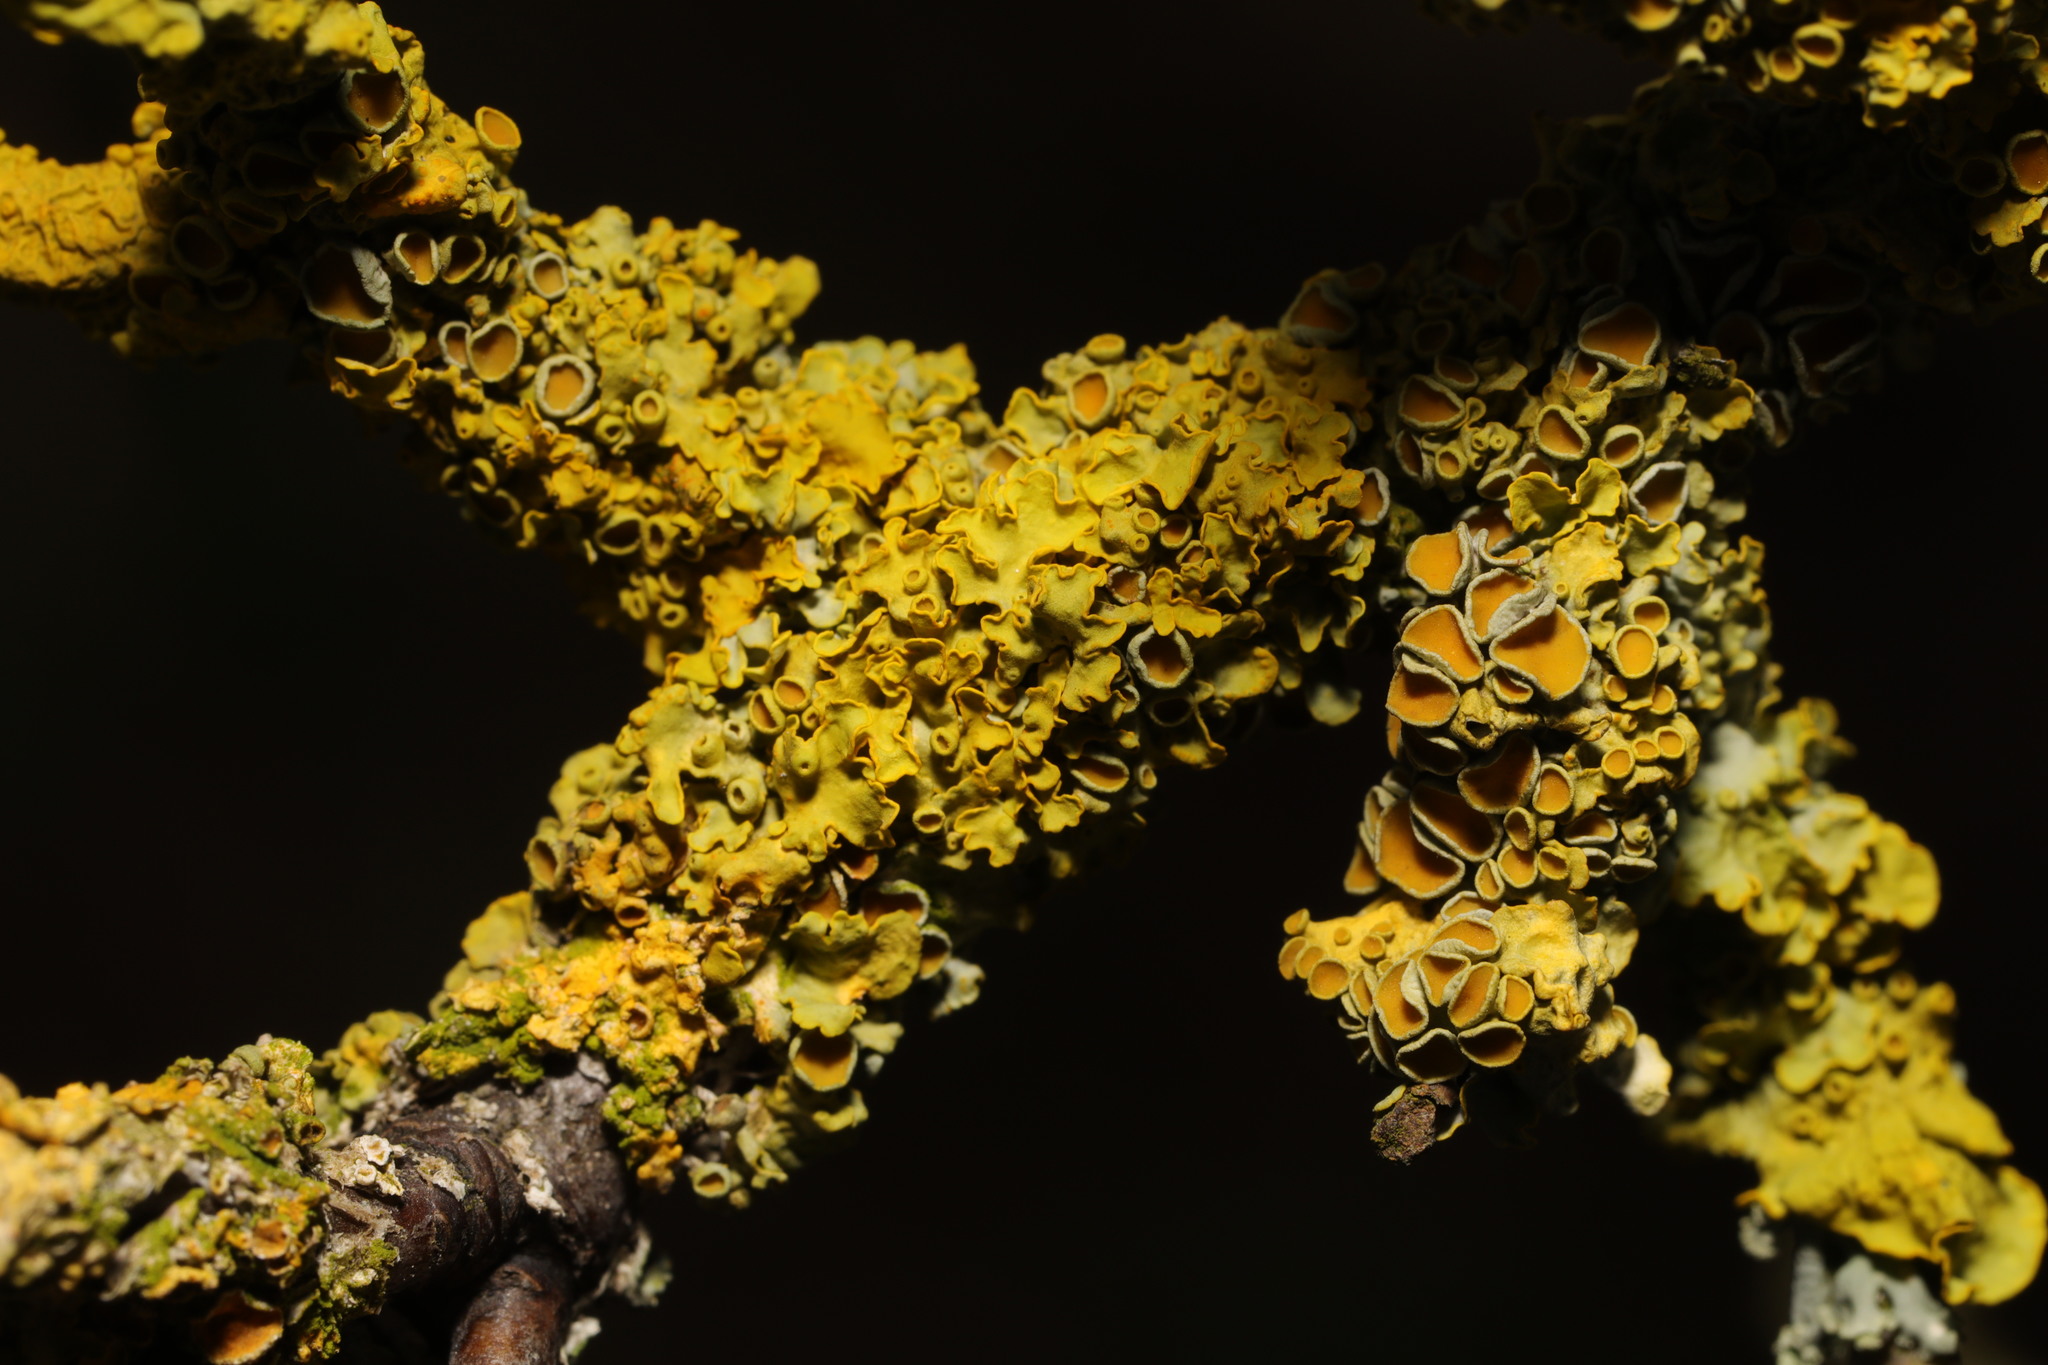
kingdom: Fungi
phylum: Ascomycota
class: Lecanoromycetes
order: Teloschistales
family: Teloschistaceae
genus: Xanthoria
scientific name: Xanthoria parietina
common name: Common orange lichen
